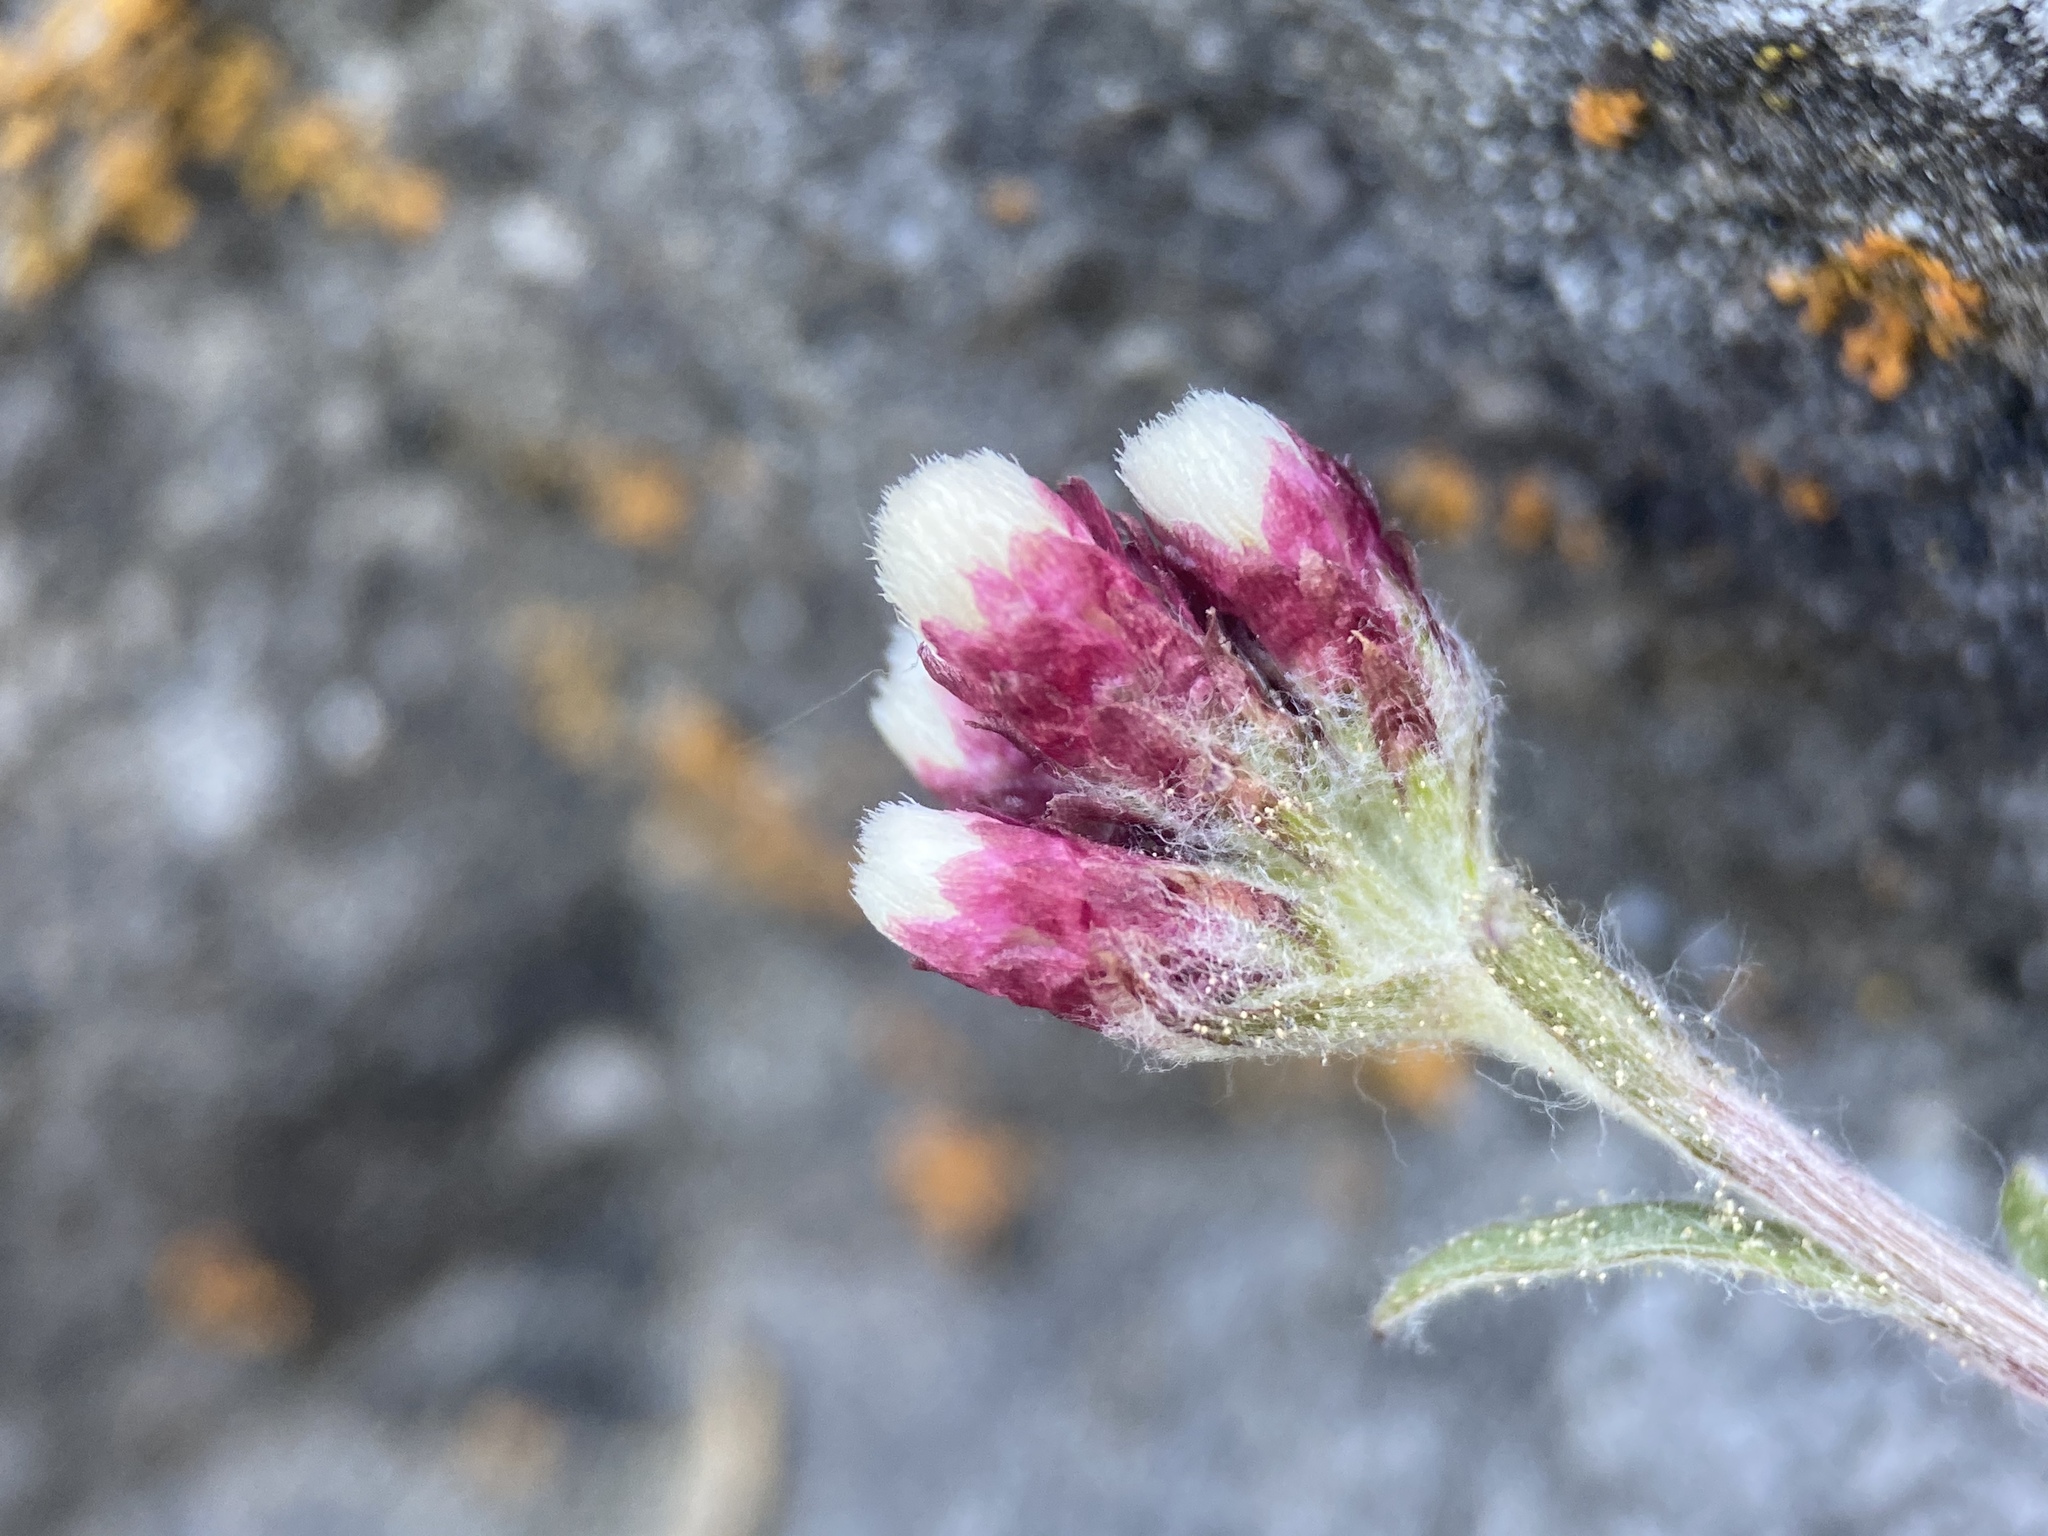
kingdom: Plantae
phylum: Tracheophyta
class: Magnoliopsida
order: Asterales
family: Asteraceae
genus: Antennaria
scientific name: Antennaria rosea
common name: Rosy pussytoes
